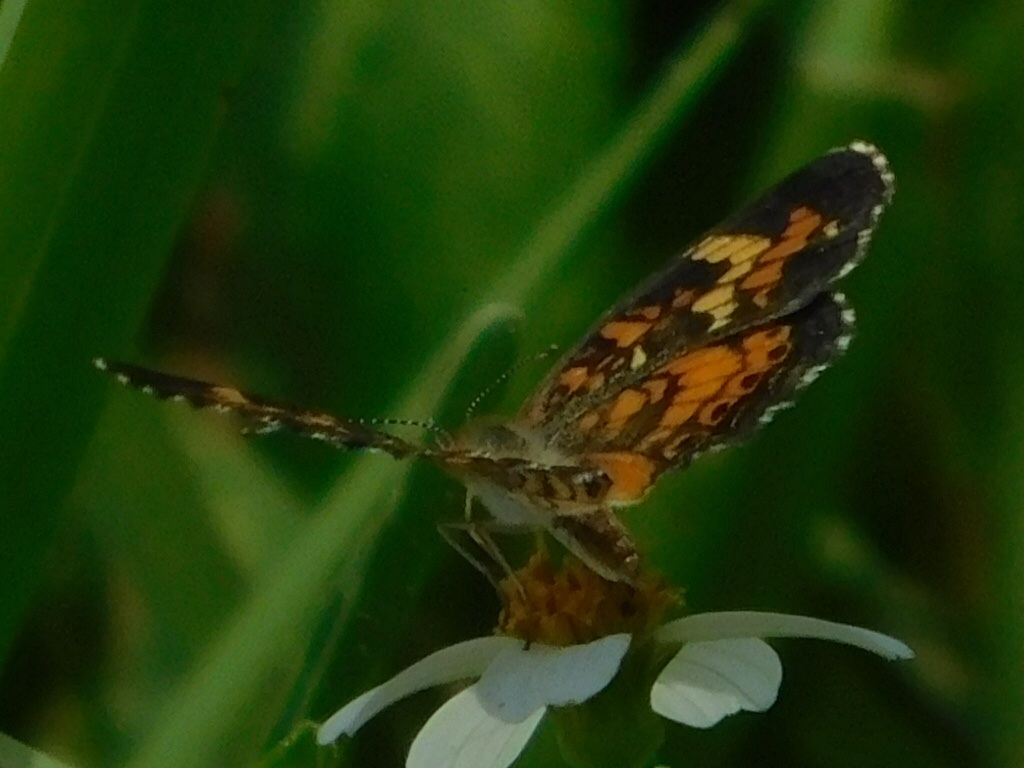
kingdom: Animalia
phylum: Arthropoda
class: Insecta
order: Lepidoptera
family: Nymphalidae
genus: Phyciodes
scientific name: Phyciodes phaon
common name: Phaon crescent
